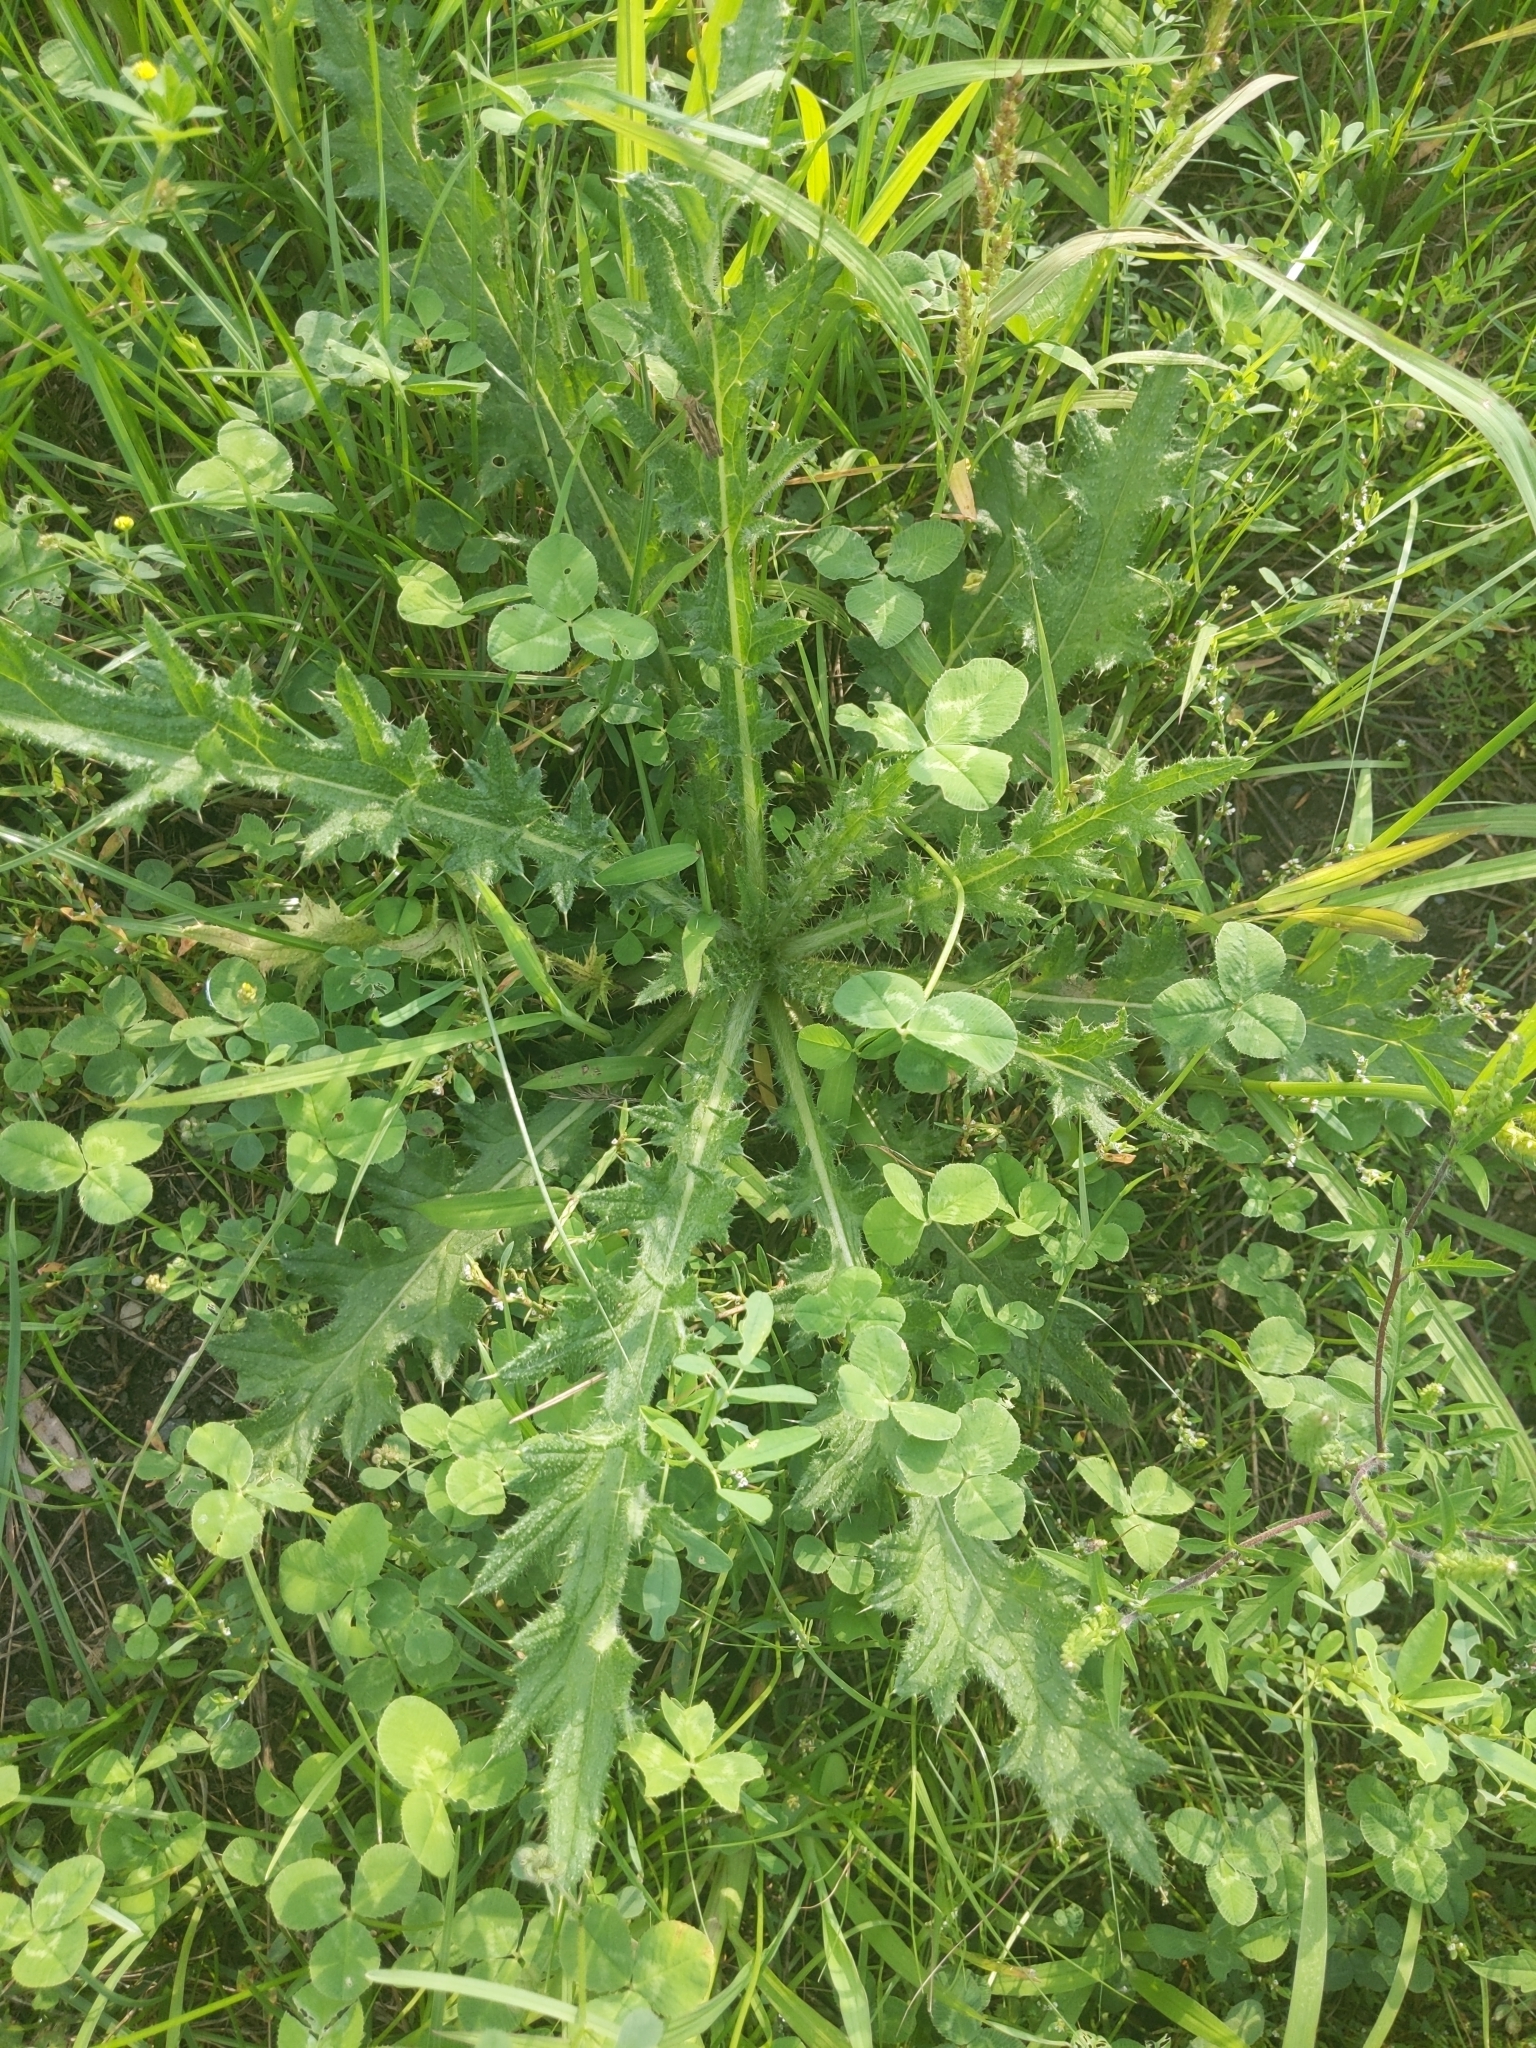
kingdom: Plantae
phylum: Tracheophyta
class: Magnoliopsida
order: Asterales
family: Asteraceae
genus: Cirsium
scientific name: Cirsium vulgare
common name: Bull thistle
